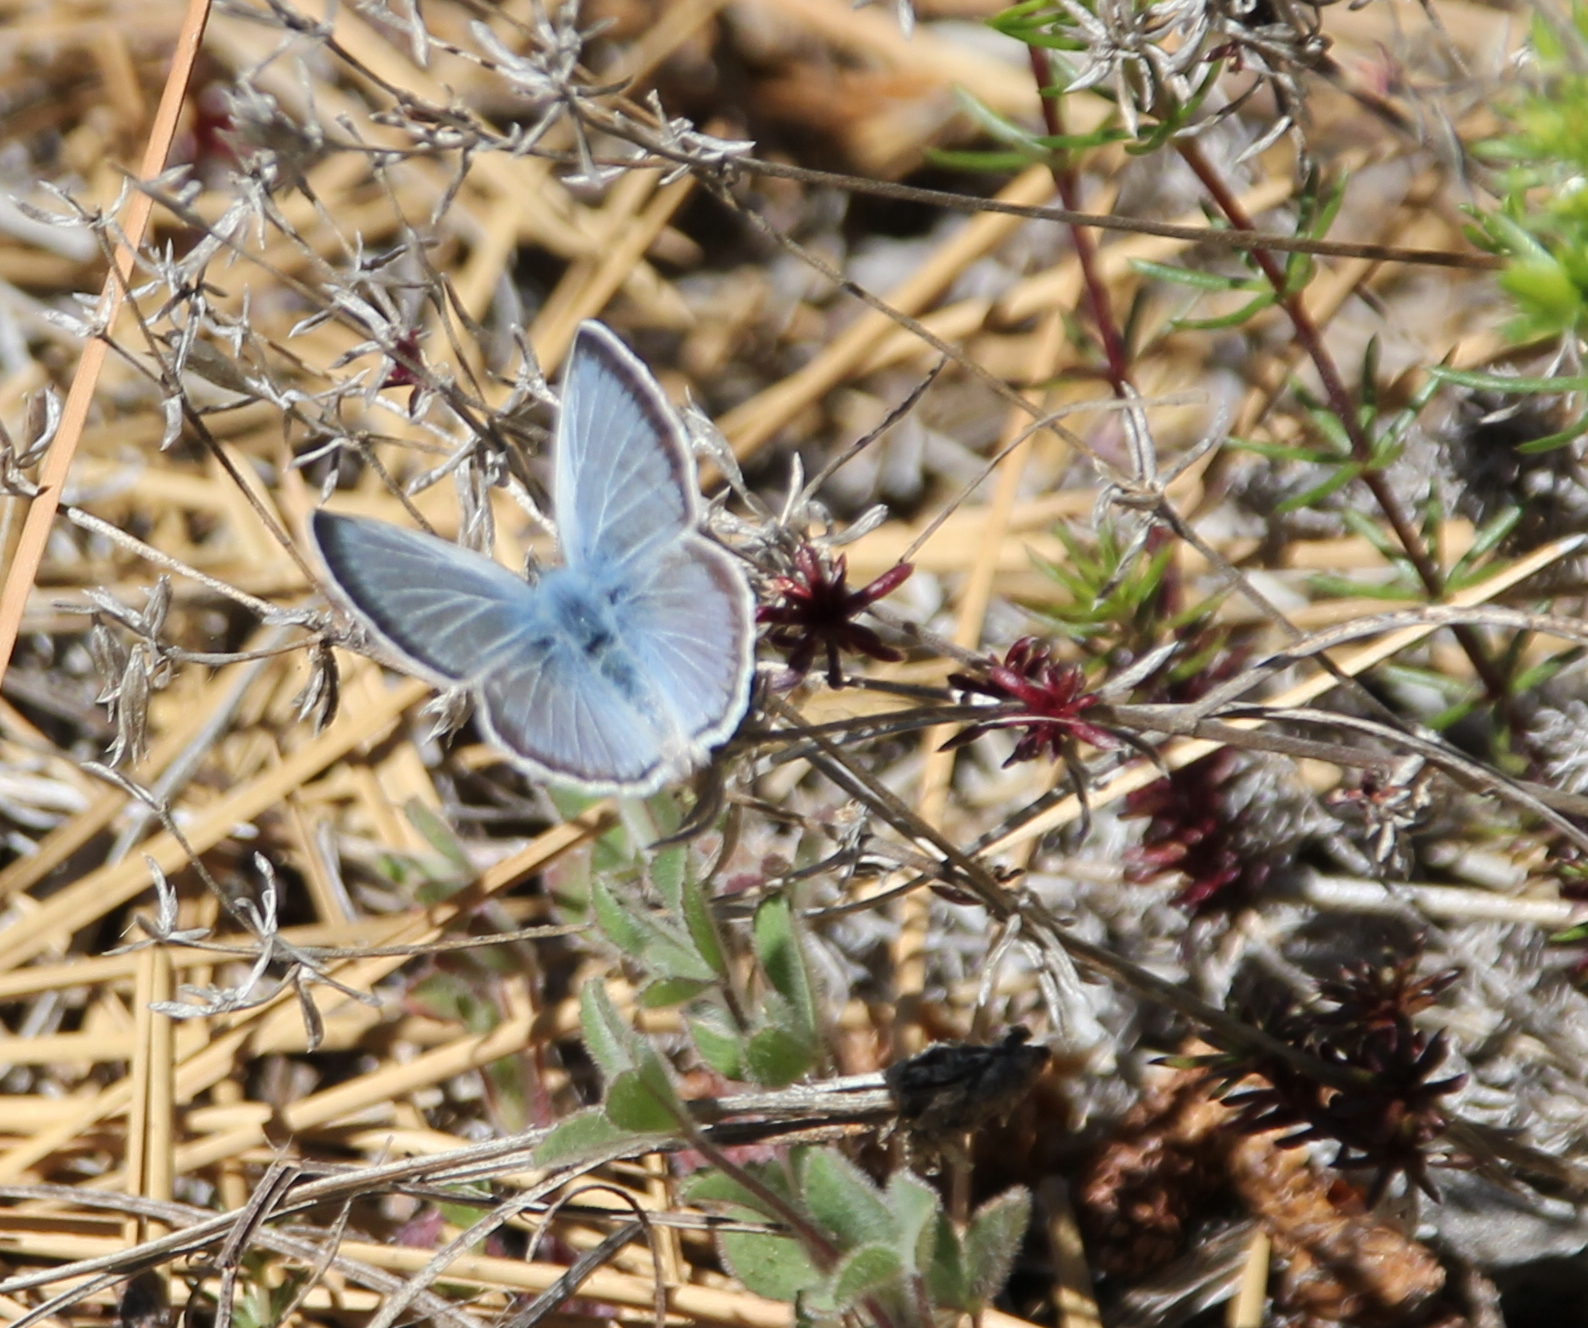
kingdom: Animalia
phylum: Arthropoda
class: Insecta
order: Lepidoptera
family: Lycaenidae
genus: Icaricia
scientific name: Icaricia icarioides
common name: Boisduval's blue
